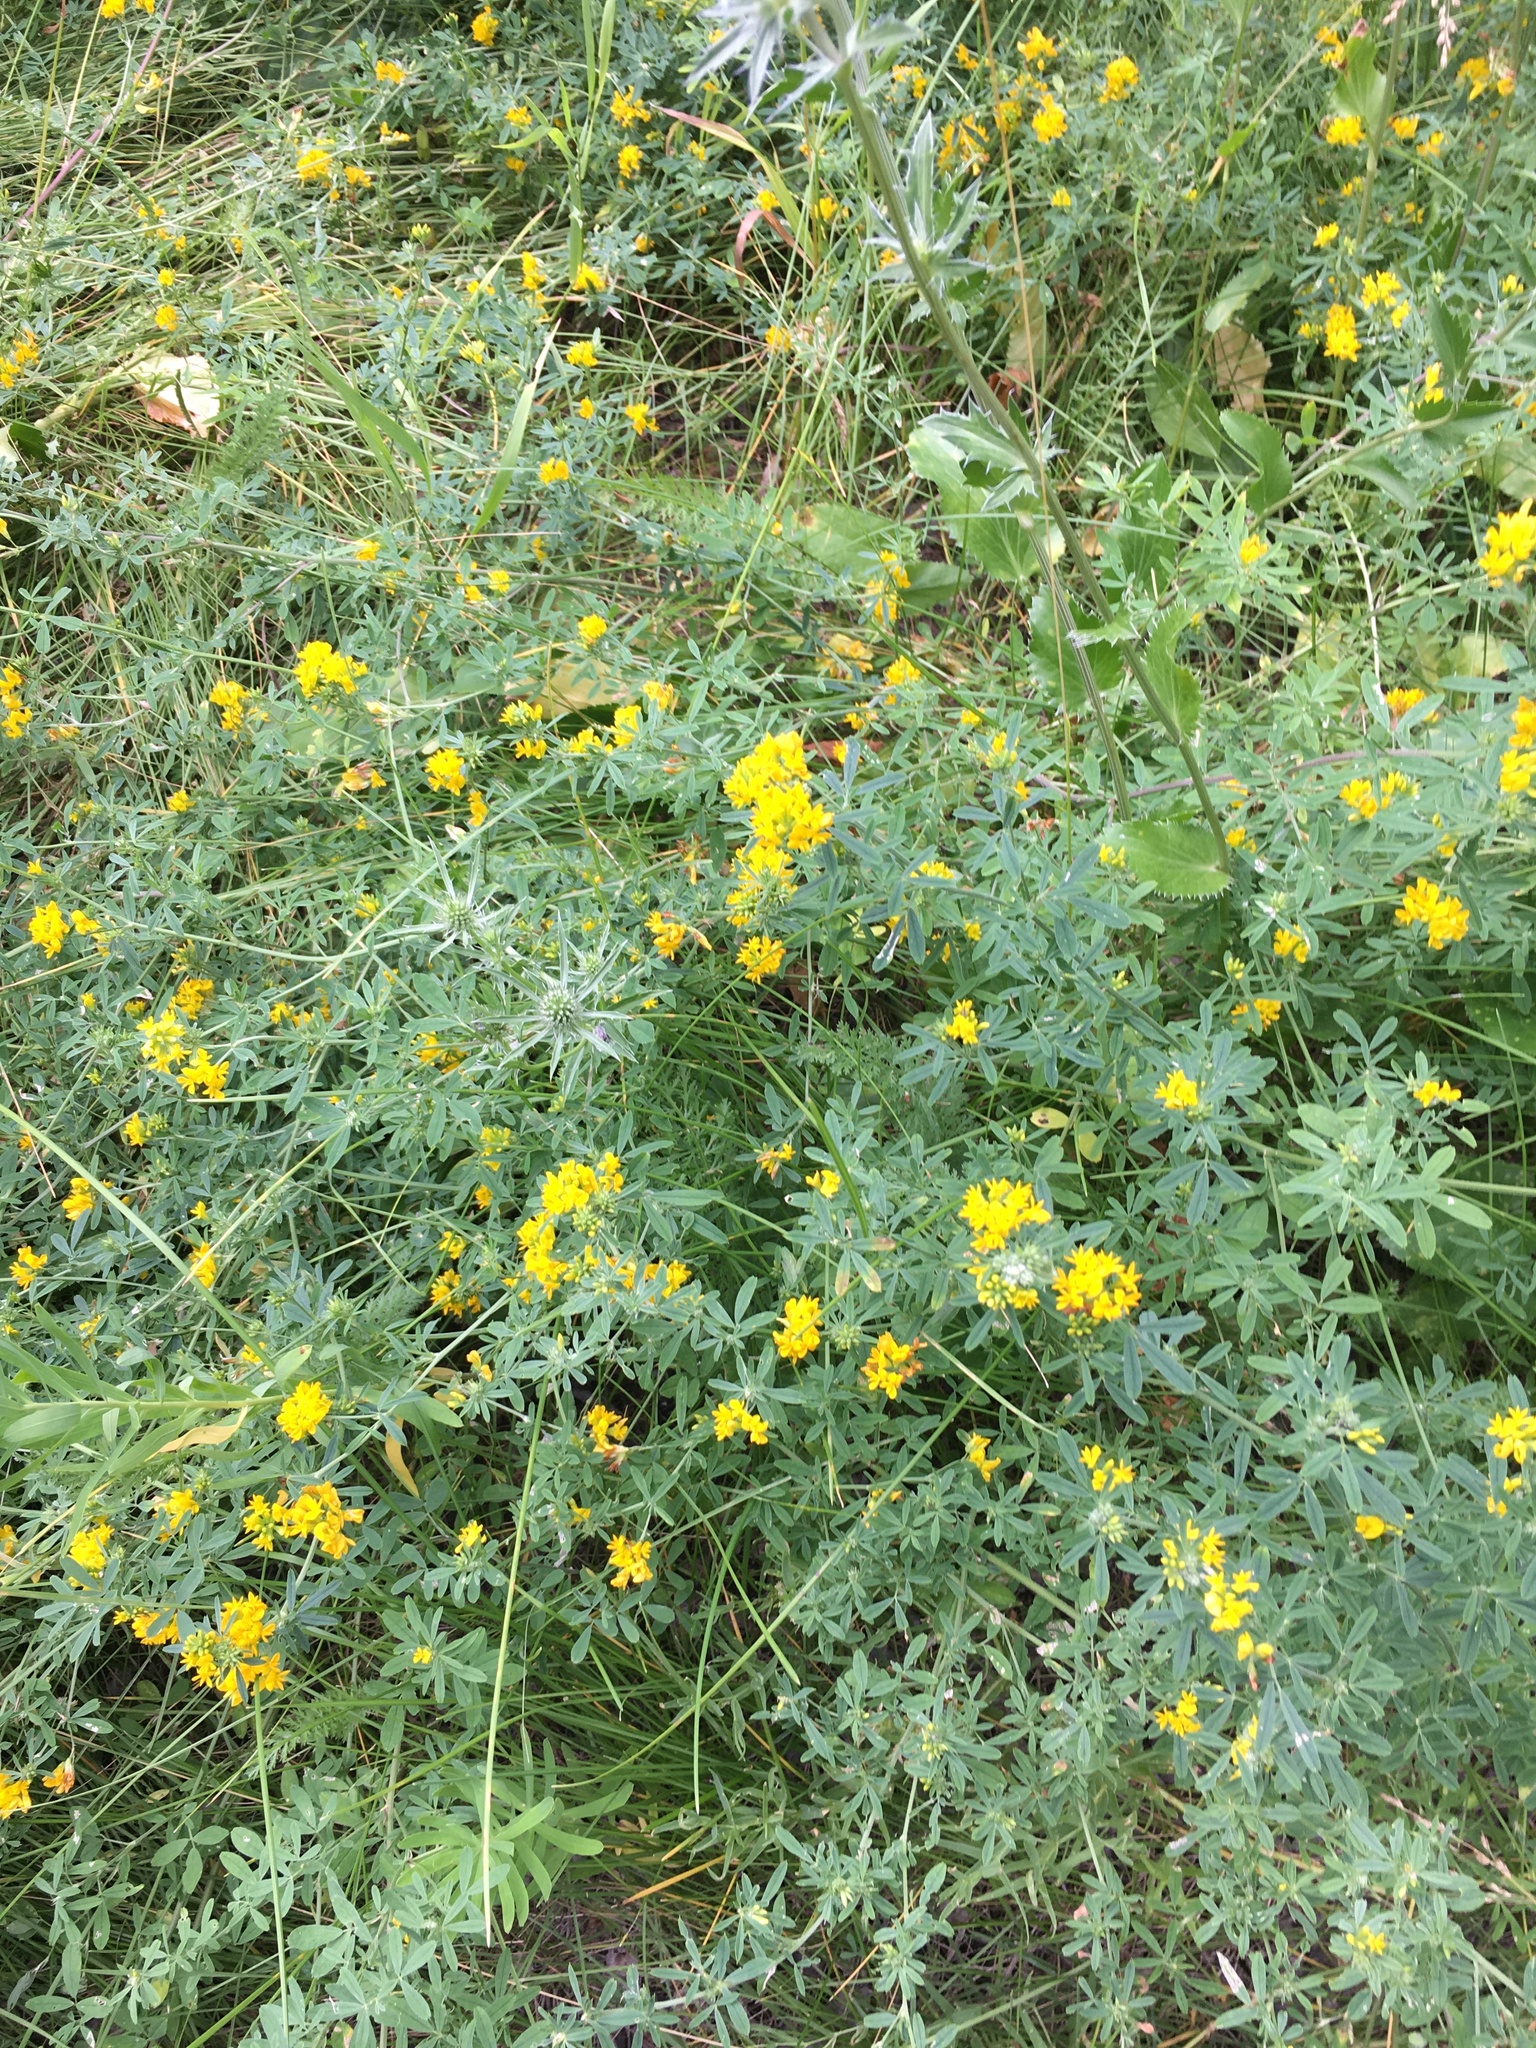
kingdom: Plantae
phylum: Tracheophyta
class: Magnoliopsida
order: Fabales
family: Fabaceae
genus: Medicago
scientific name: Medicago falcata
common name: Sickle medick
